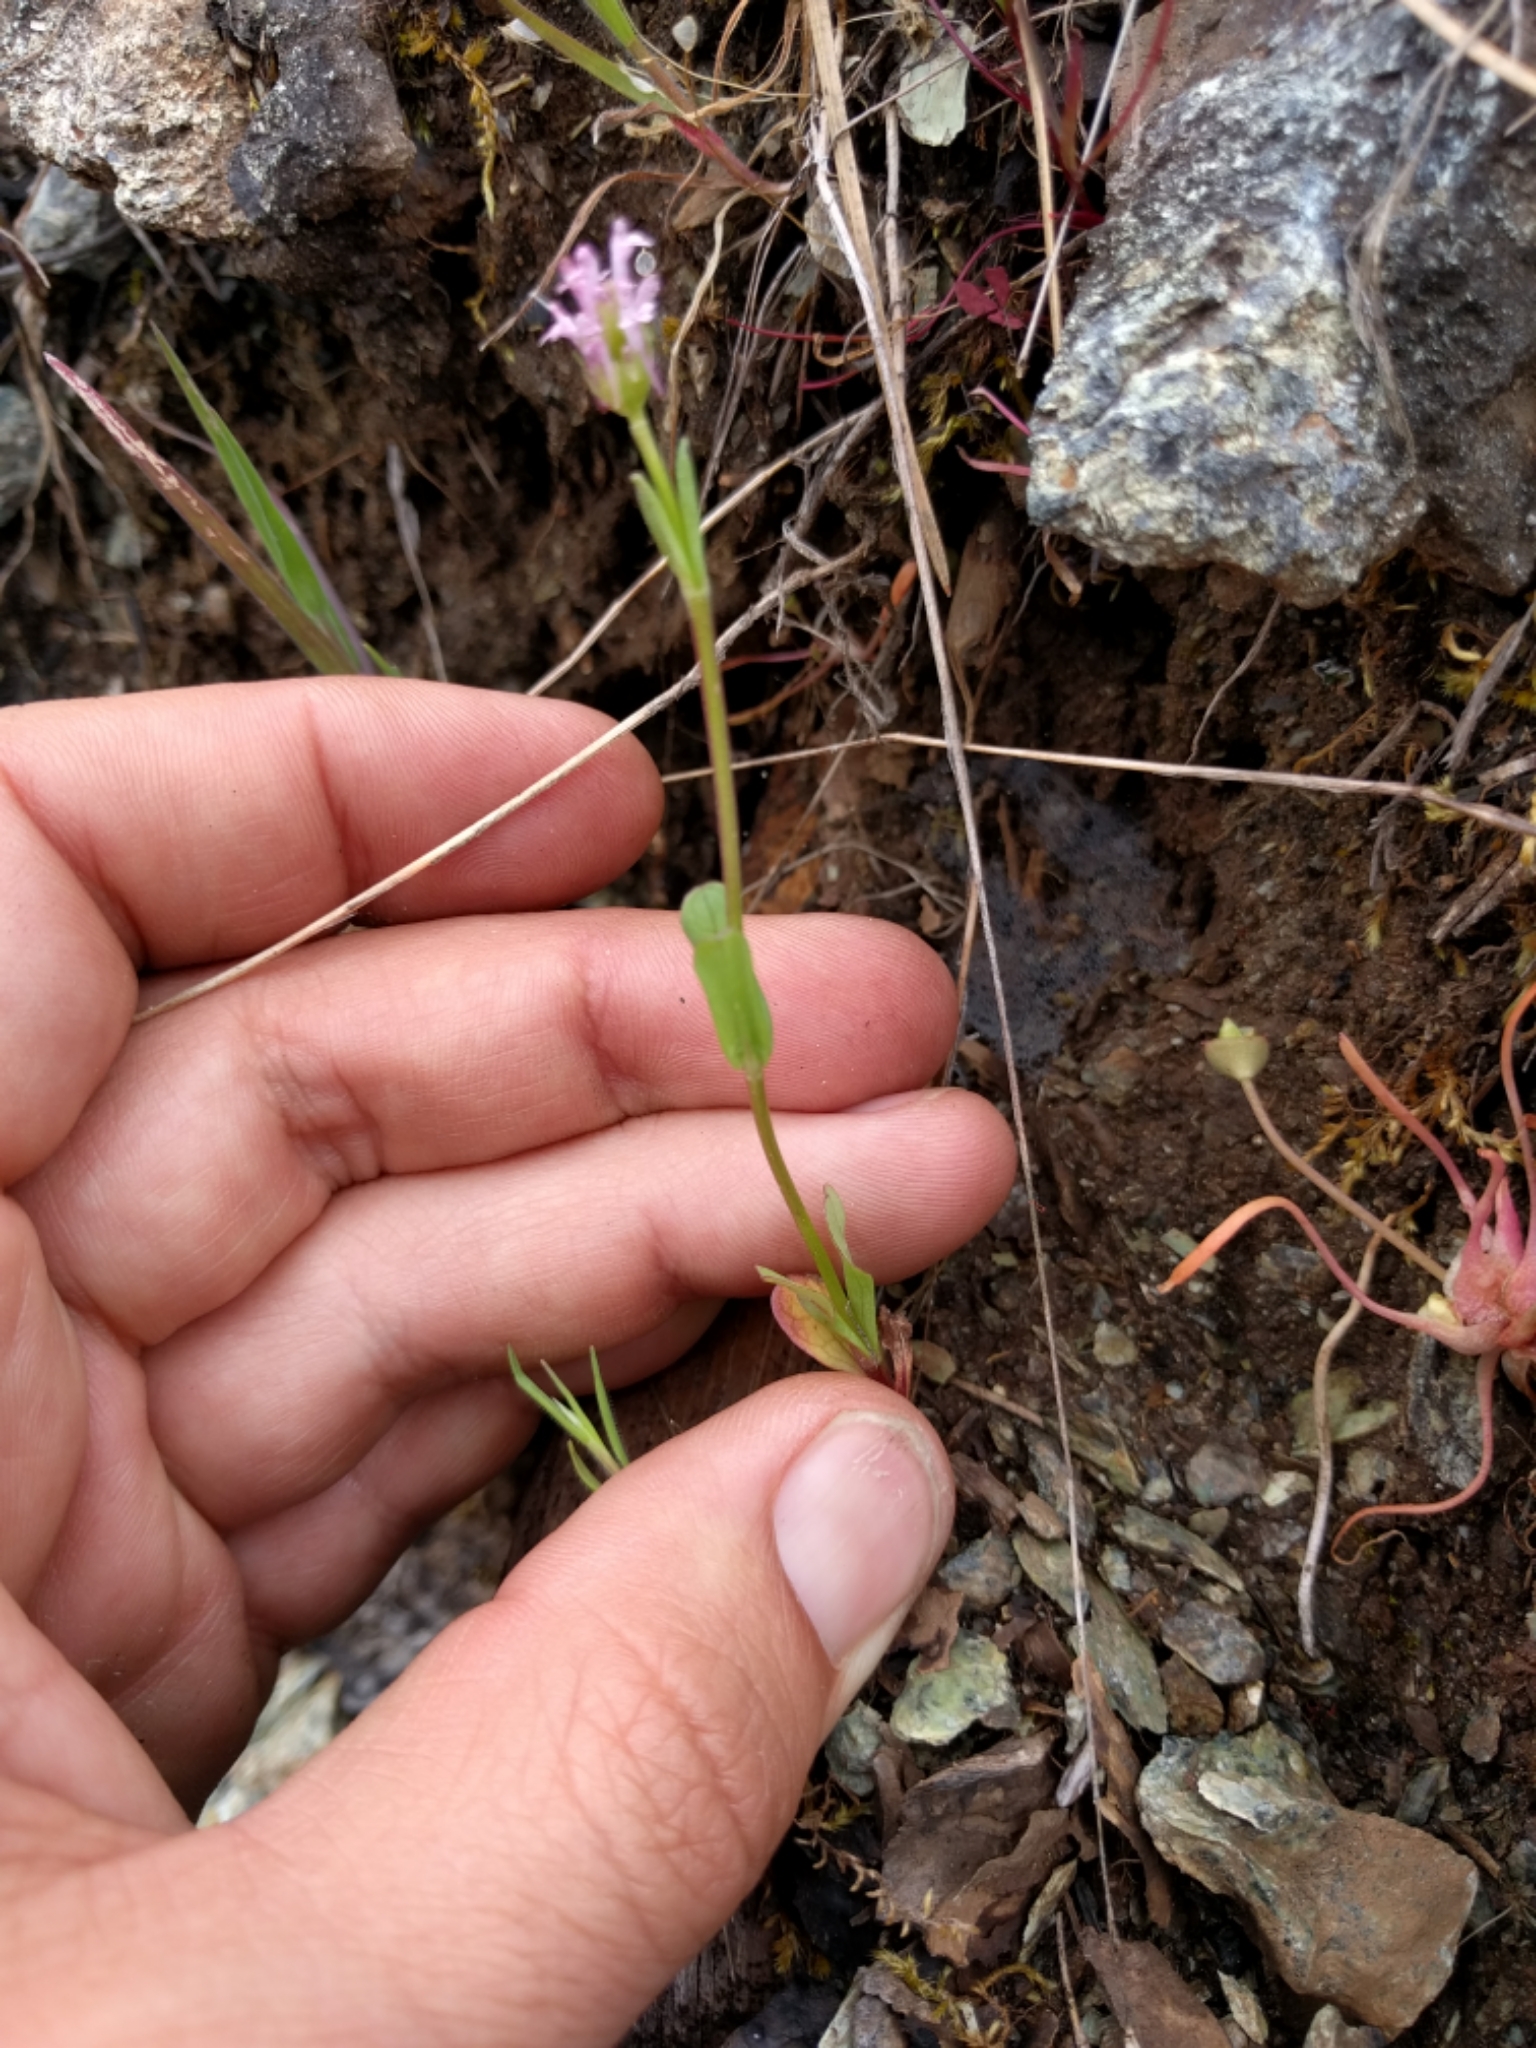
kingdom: Plantae
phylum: Tracheophyta
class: Magnoliopsida
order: Dipsacales
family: Caprifoliaceae
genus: Plectritis
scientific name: Plectritis ciliosa
